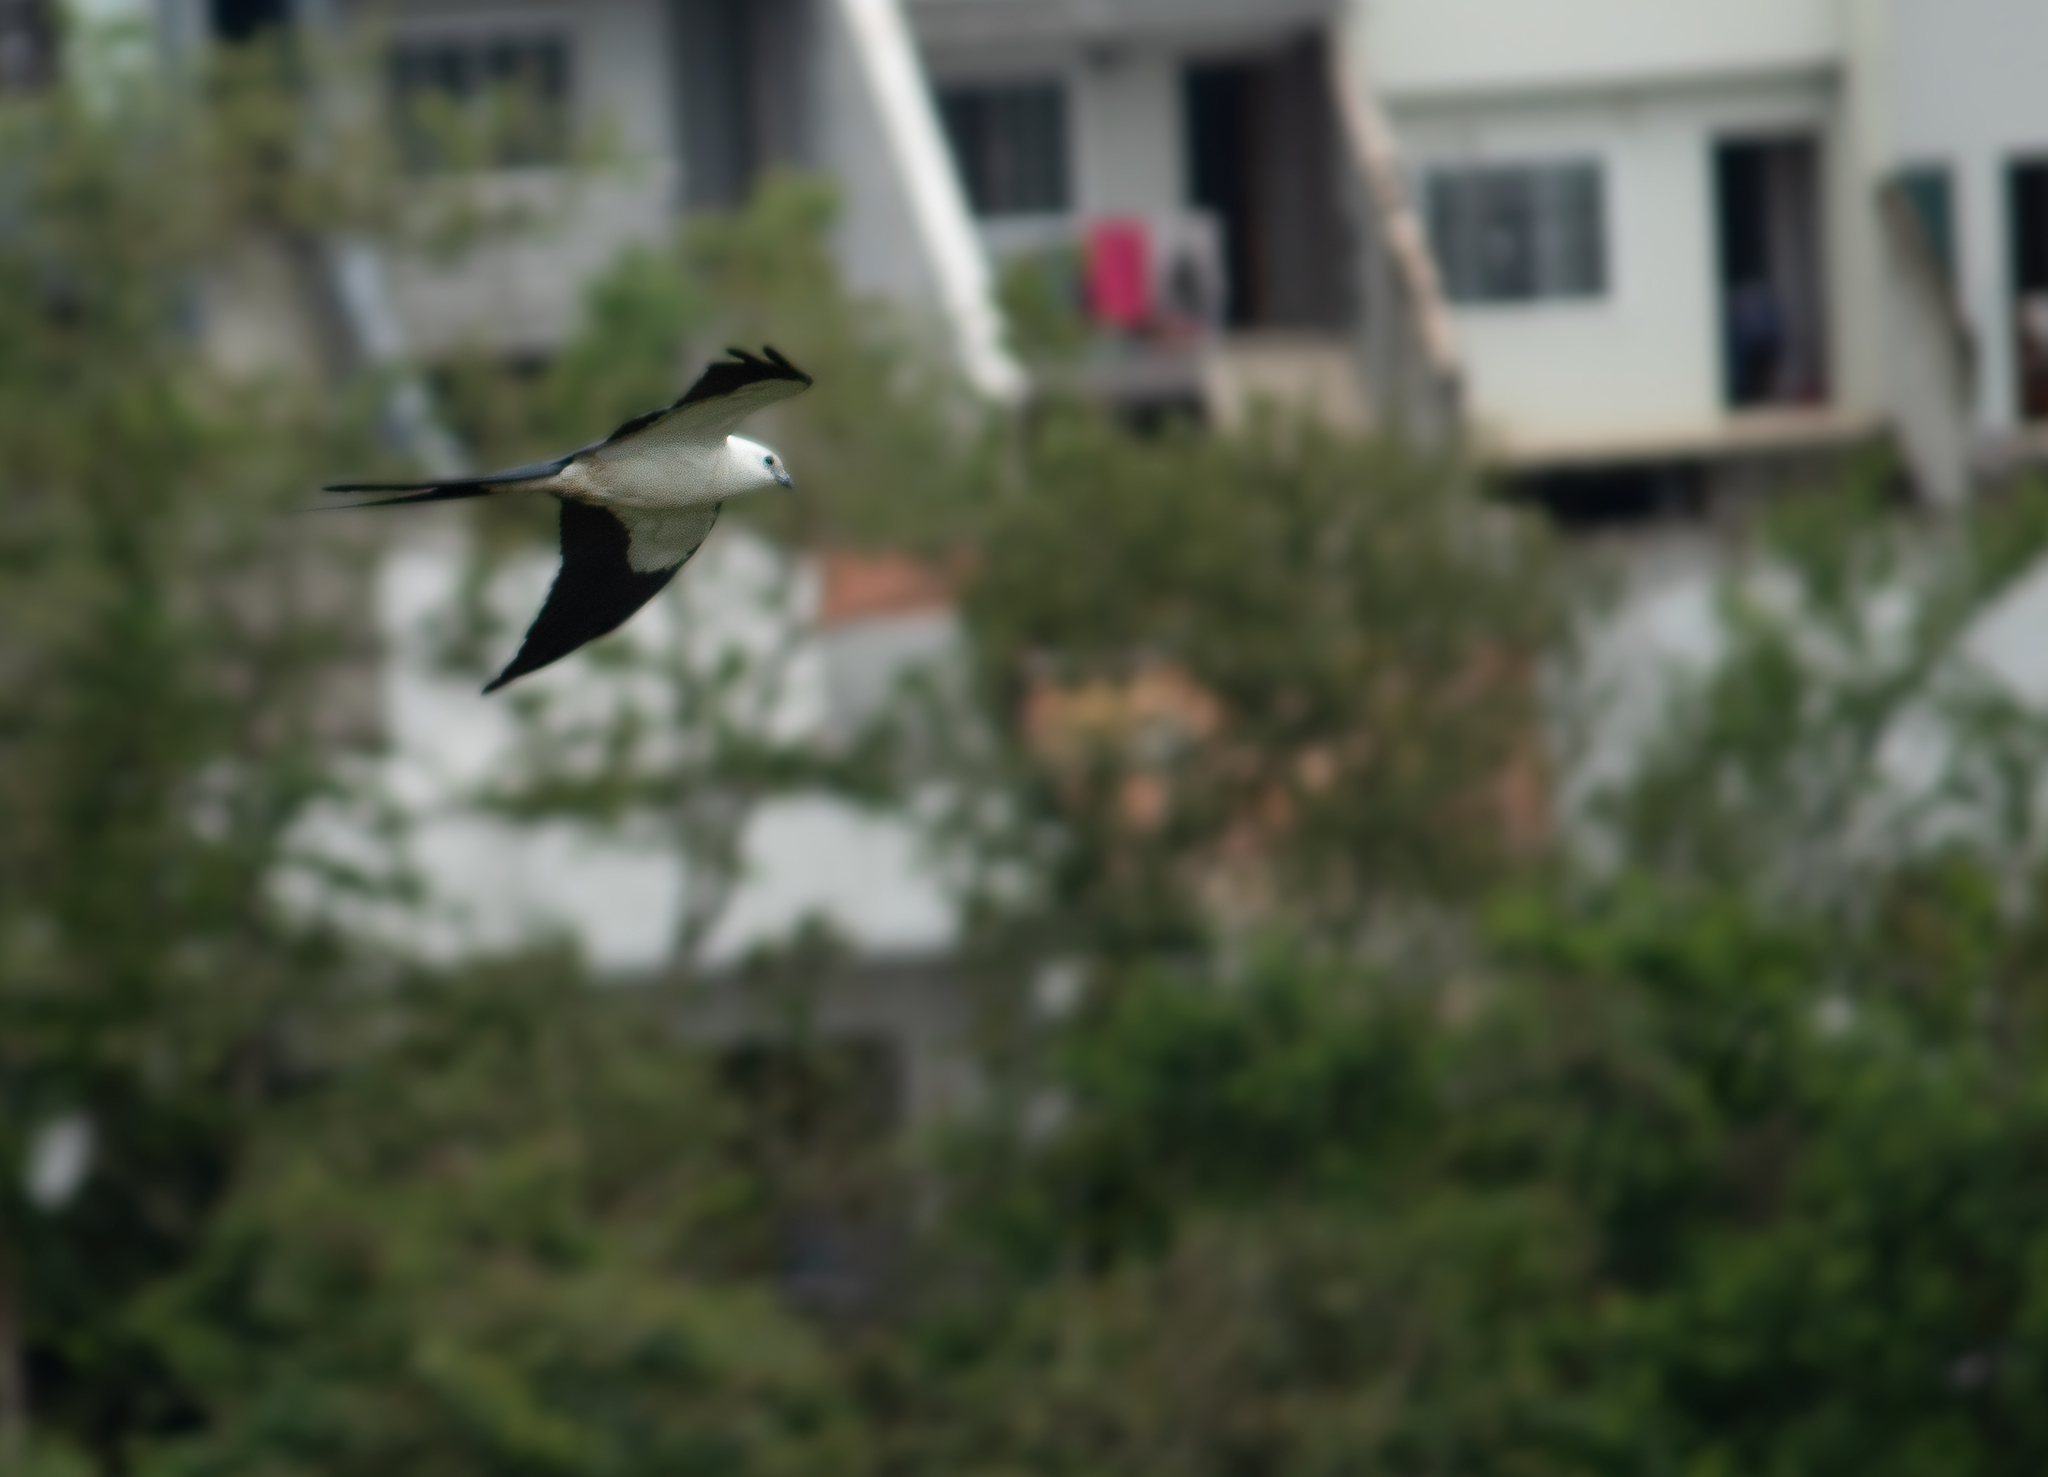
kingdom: Animalia
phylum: Chordata
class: Aves
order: Accipitriformes
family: Accipitridae
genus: Elanoides
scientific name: Elanoides forficatus
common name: Swallow-tailed kite
